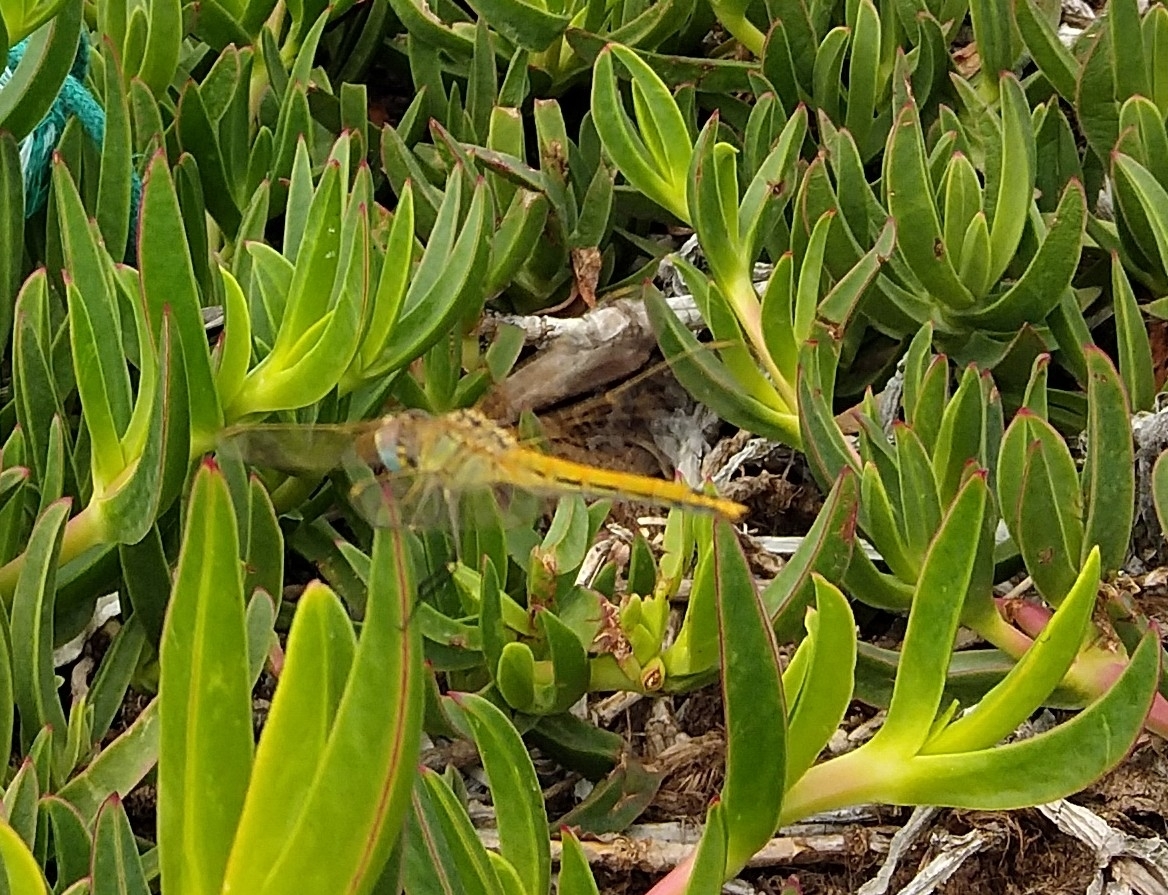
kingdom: Animalia
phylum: Arthropoda
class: Insecta
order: Odonata
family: Libellulidae
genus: Sympetrum
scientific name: Sympetrum fonscolombii
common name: Red-veined darter
